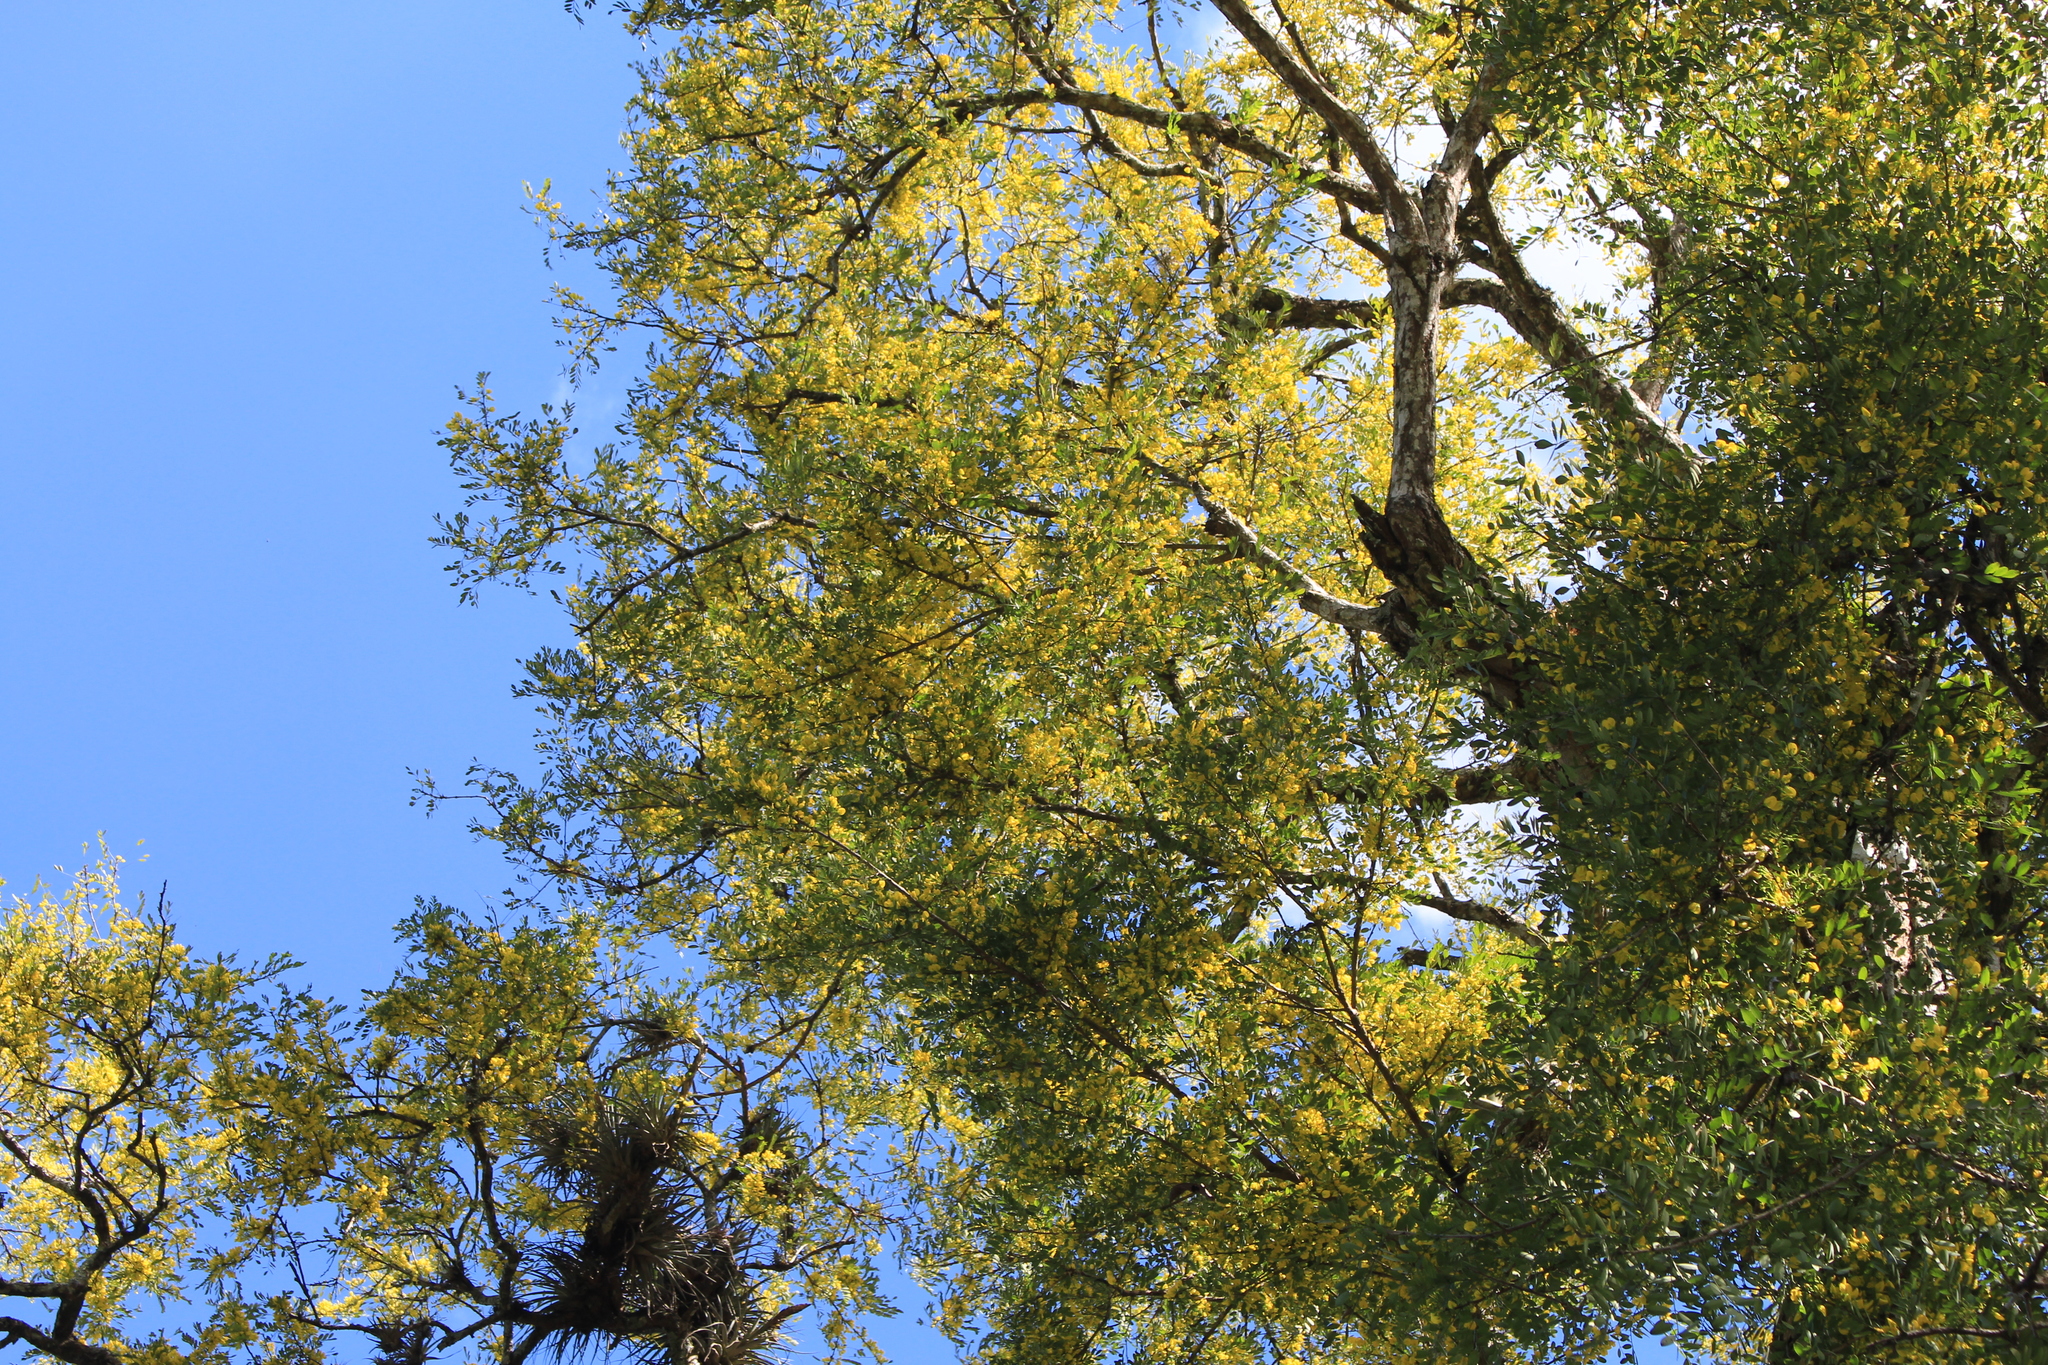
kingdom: Plantae
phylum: Tracheophyta
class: Magnoliopsida
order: Fabales
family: Fabaceae
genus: Diphysa
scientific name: Diphysa americana
